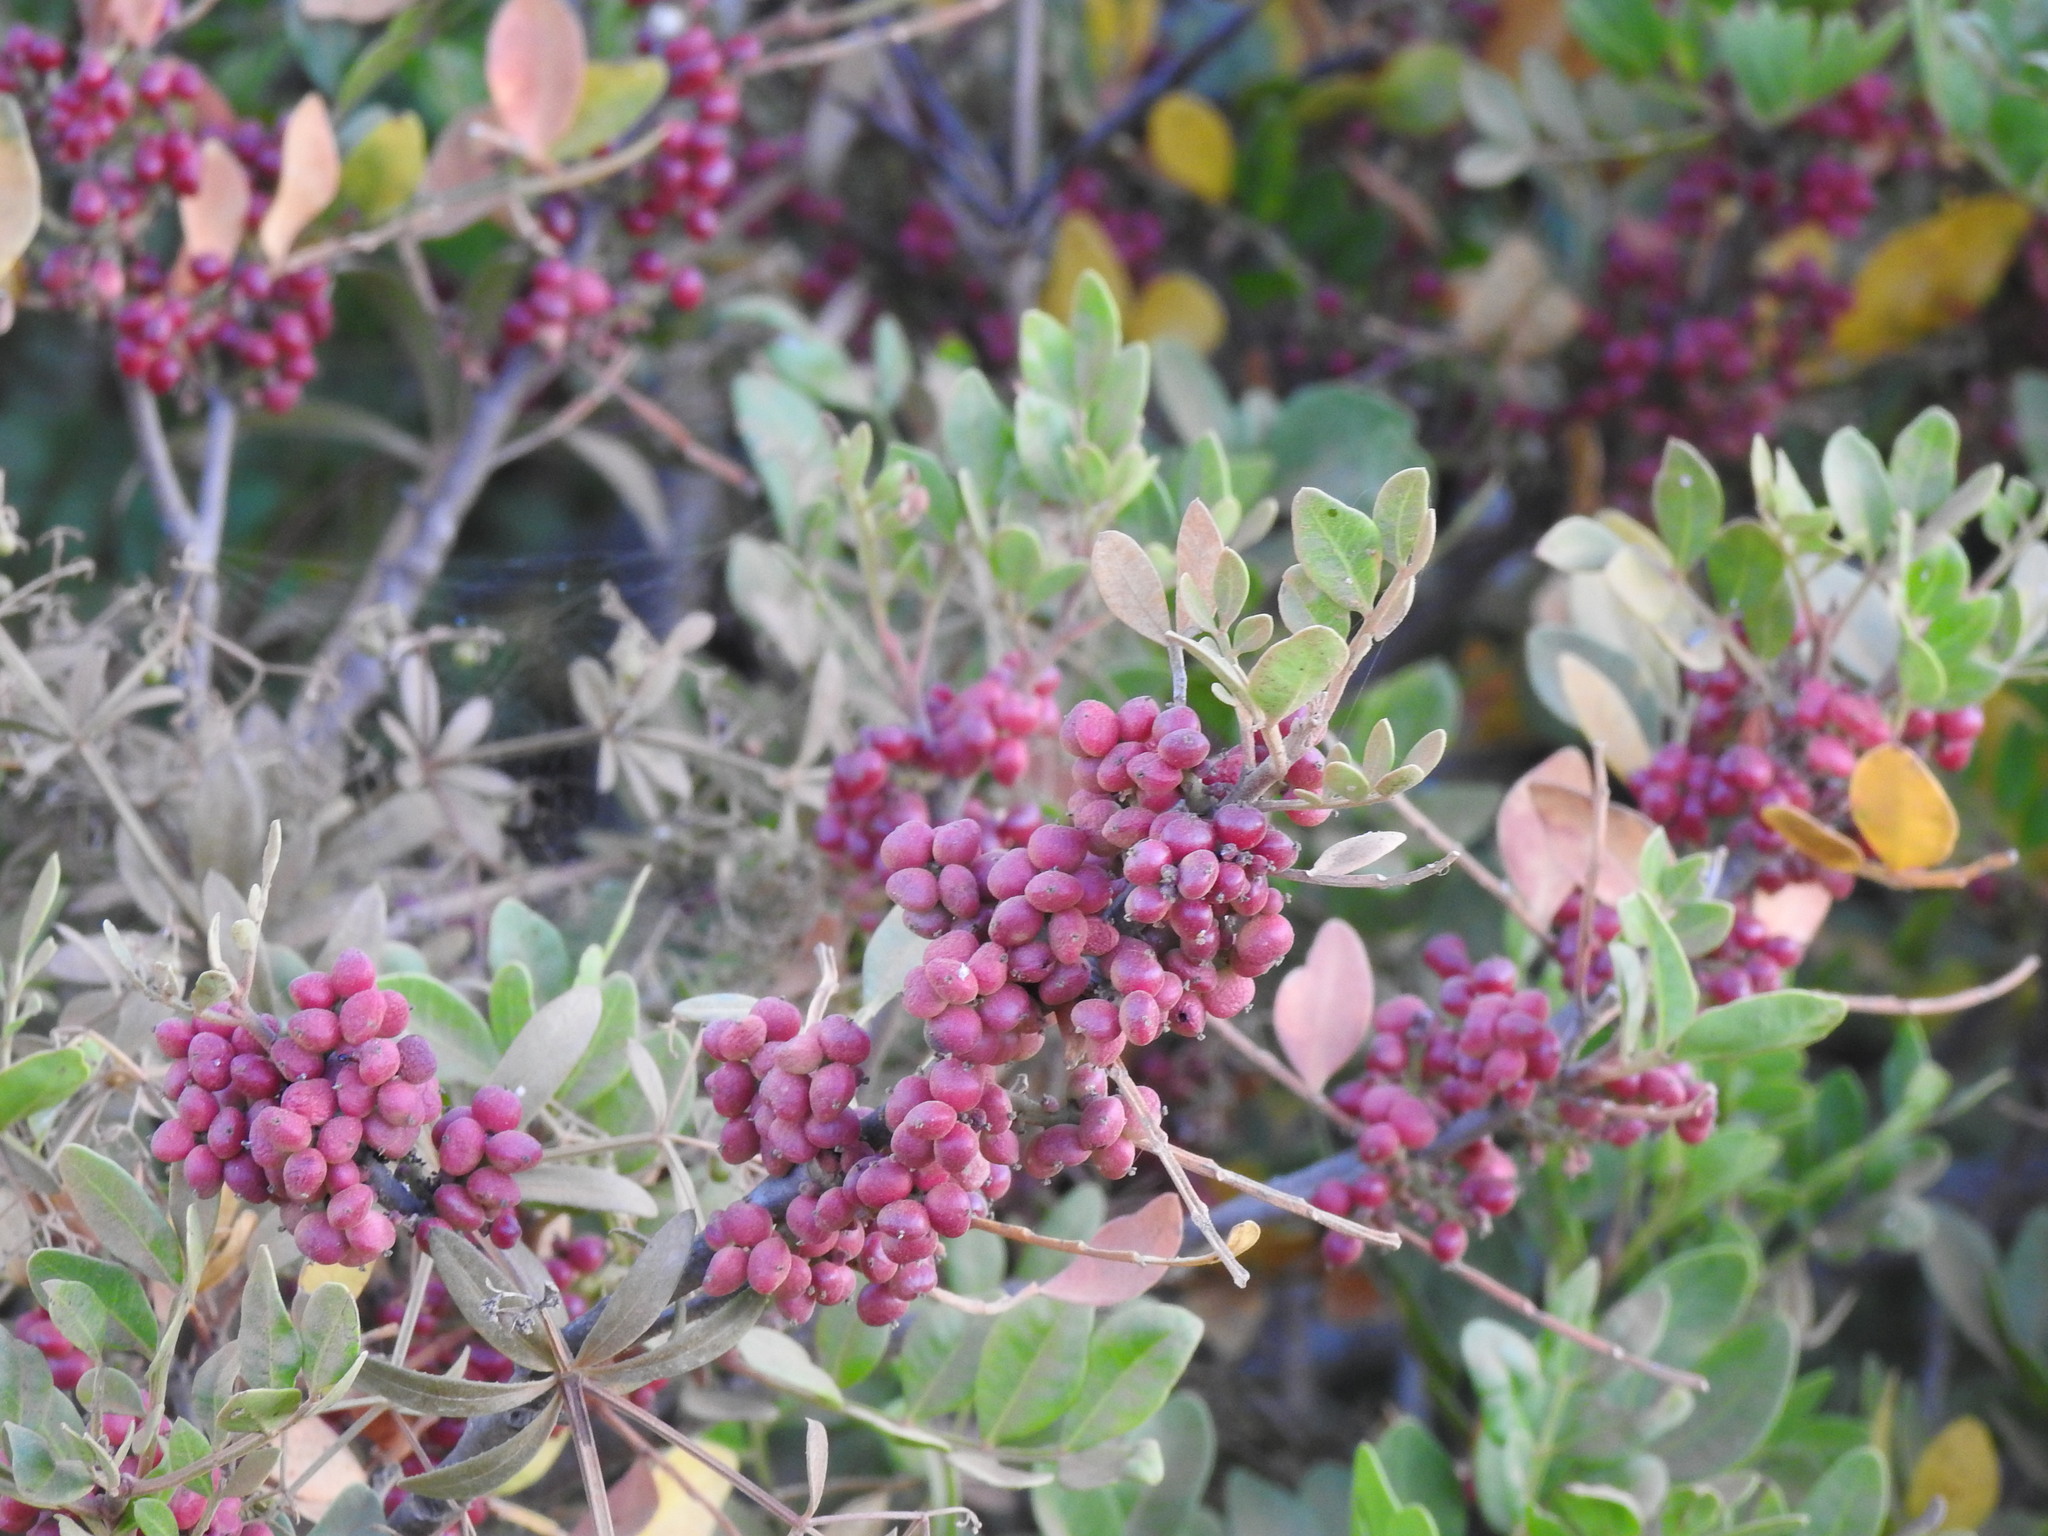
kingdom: Plantae
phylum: Tracheophyta
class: Magnoliopsida
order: Sapindales
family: Anacardiaceae
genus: Pistacia
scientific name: Pistacia lentiscus
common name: Lentisk
